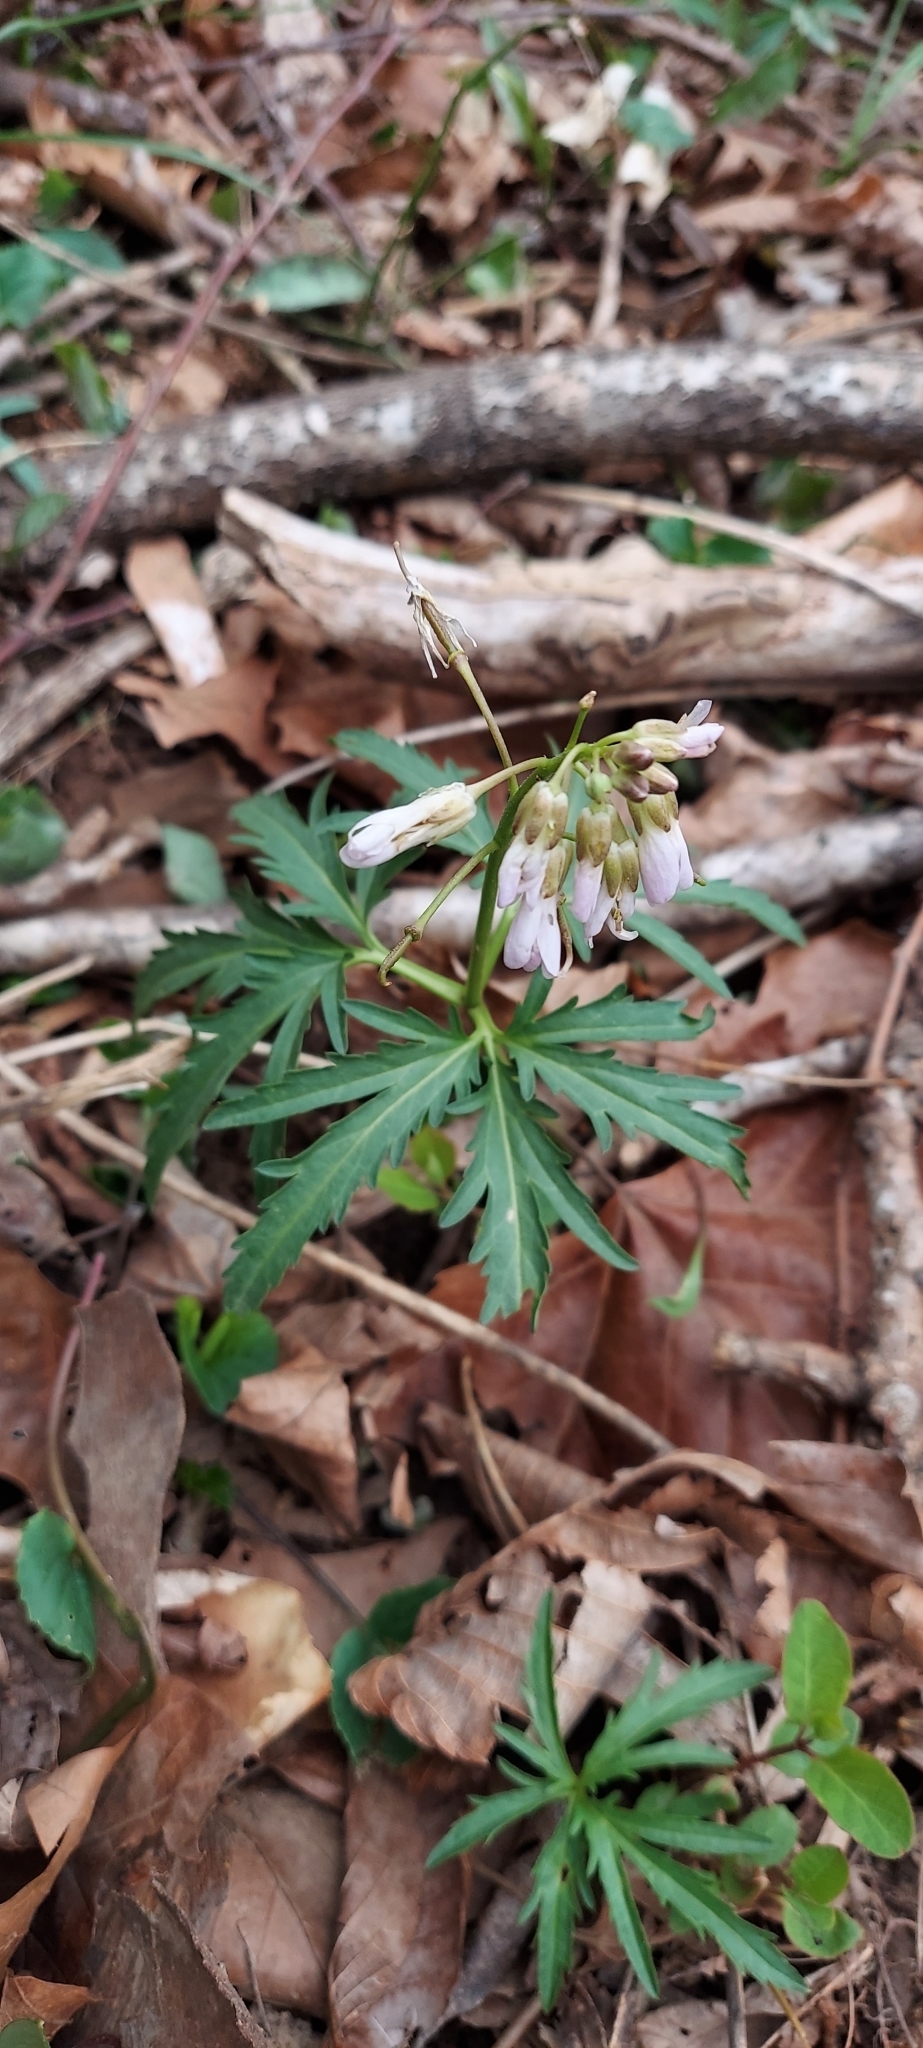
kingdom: Plantae
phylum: Tracheophyta
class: Magnoliopsida
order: Brassicales
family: Brassicaceae
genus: Cardamine
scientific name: Cardamine concatenata
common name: Cut-leaf toothcup
